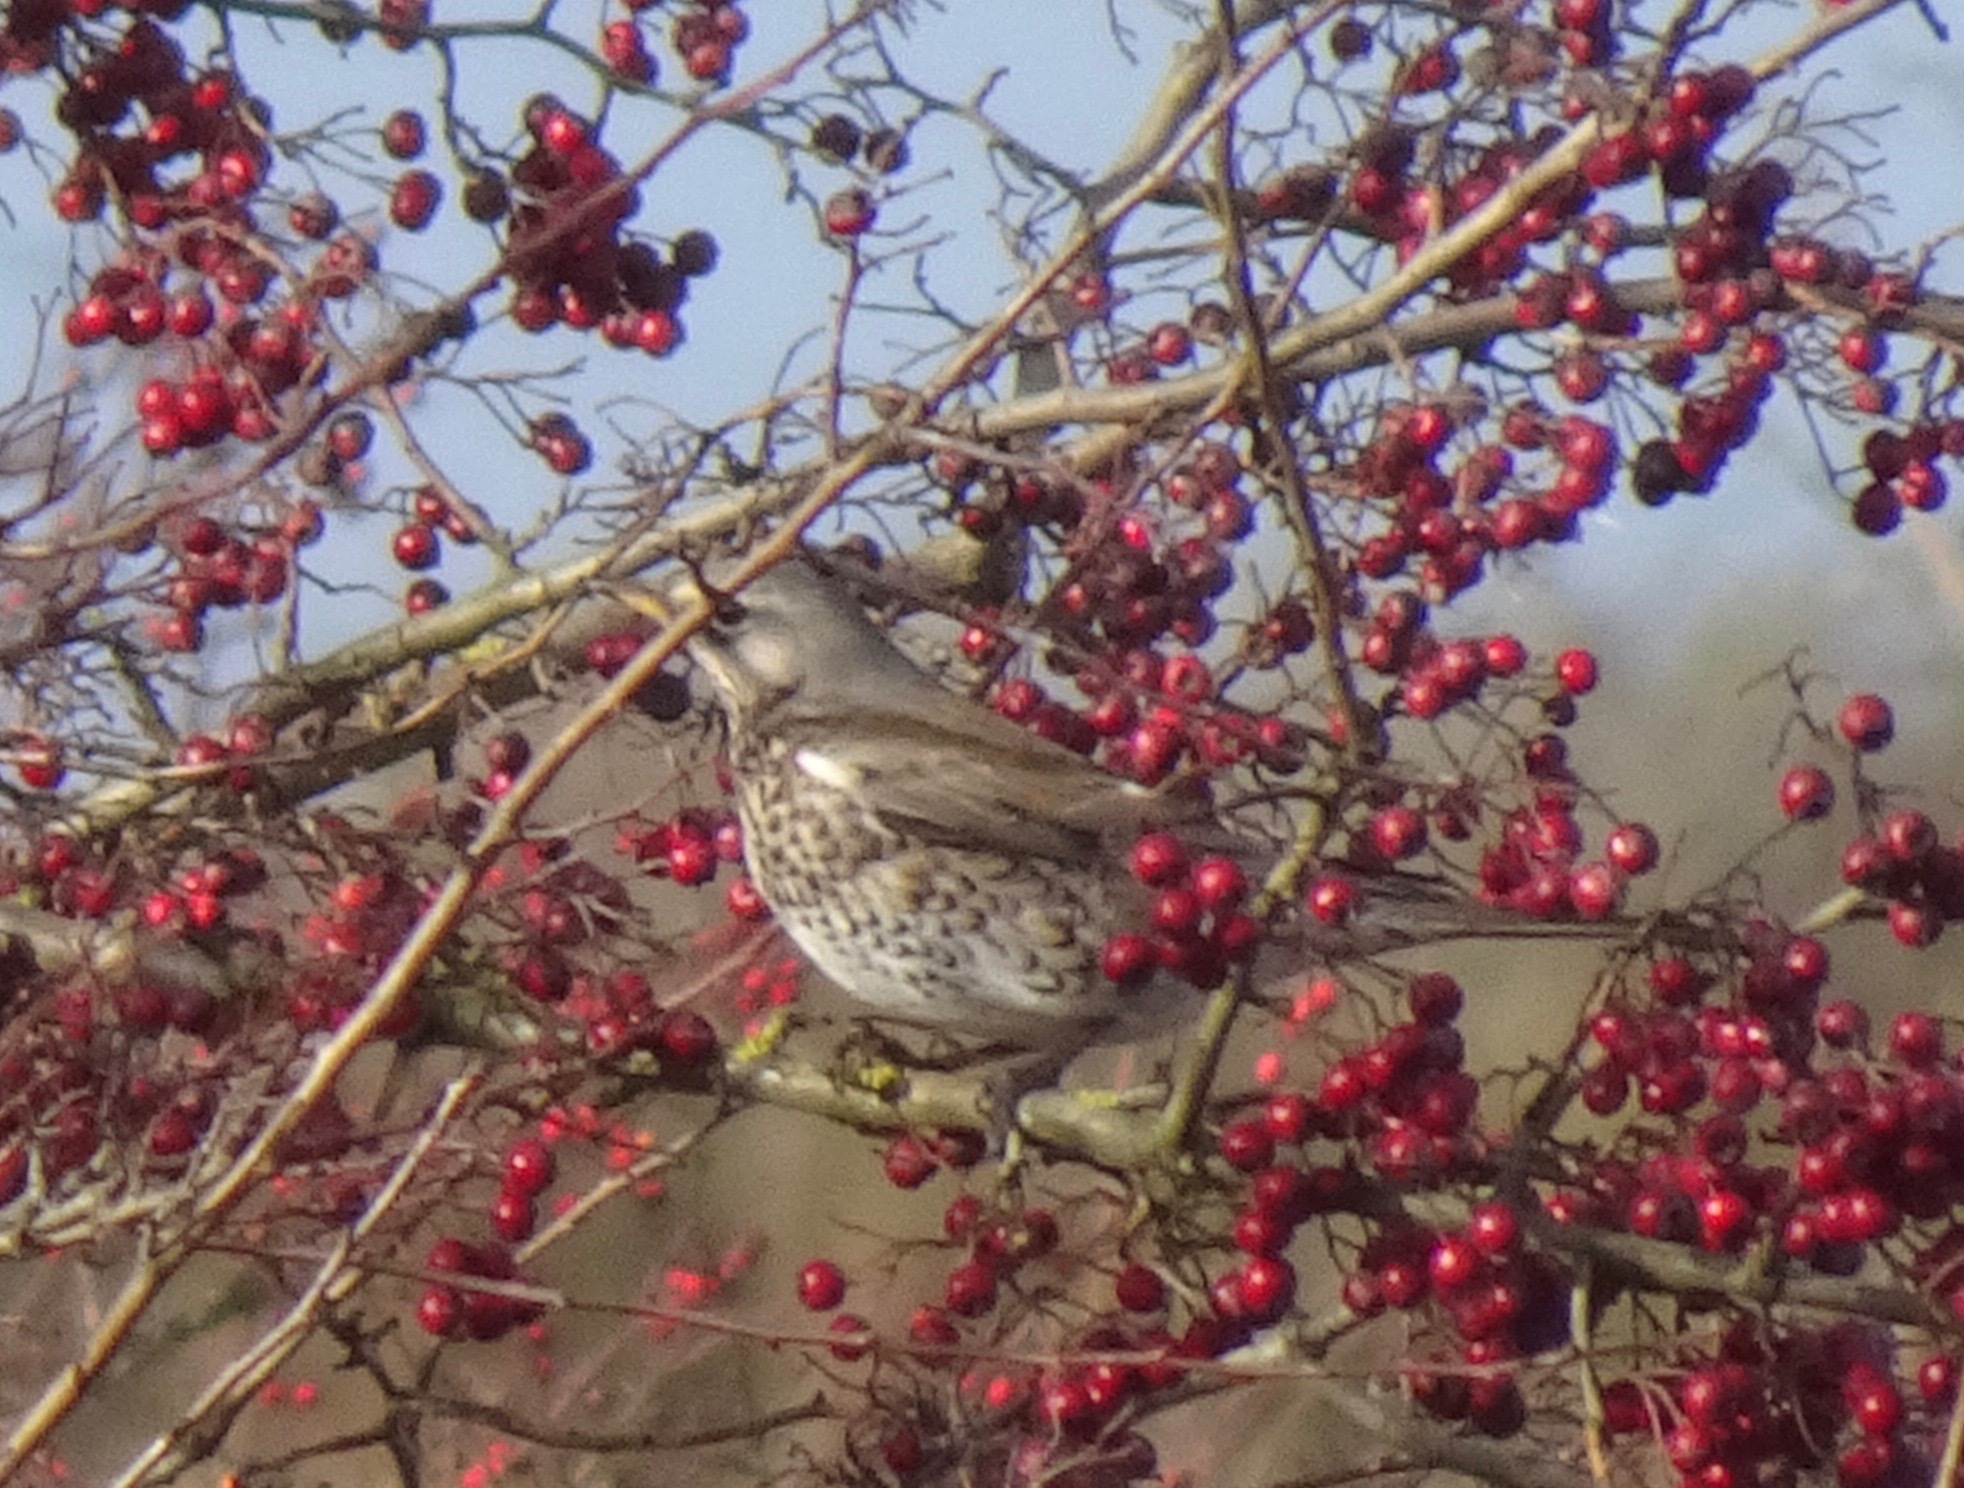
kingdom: Animalia
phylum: Chordata
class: Aves
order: Passeriformes
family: Turdidae
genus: Turdus
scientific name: Turdus pilaris
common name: Fieldfare
